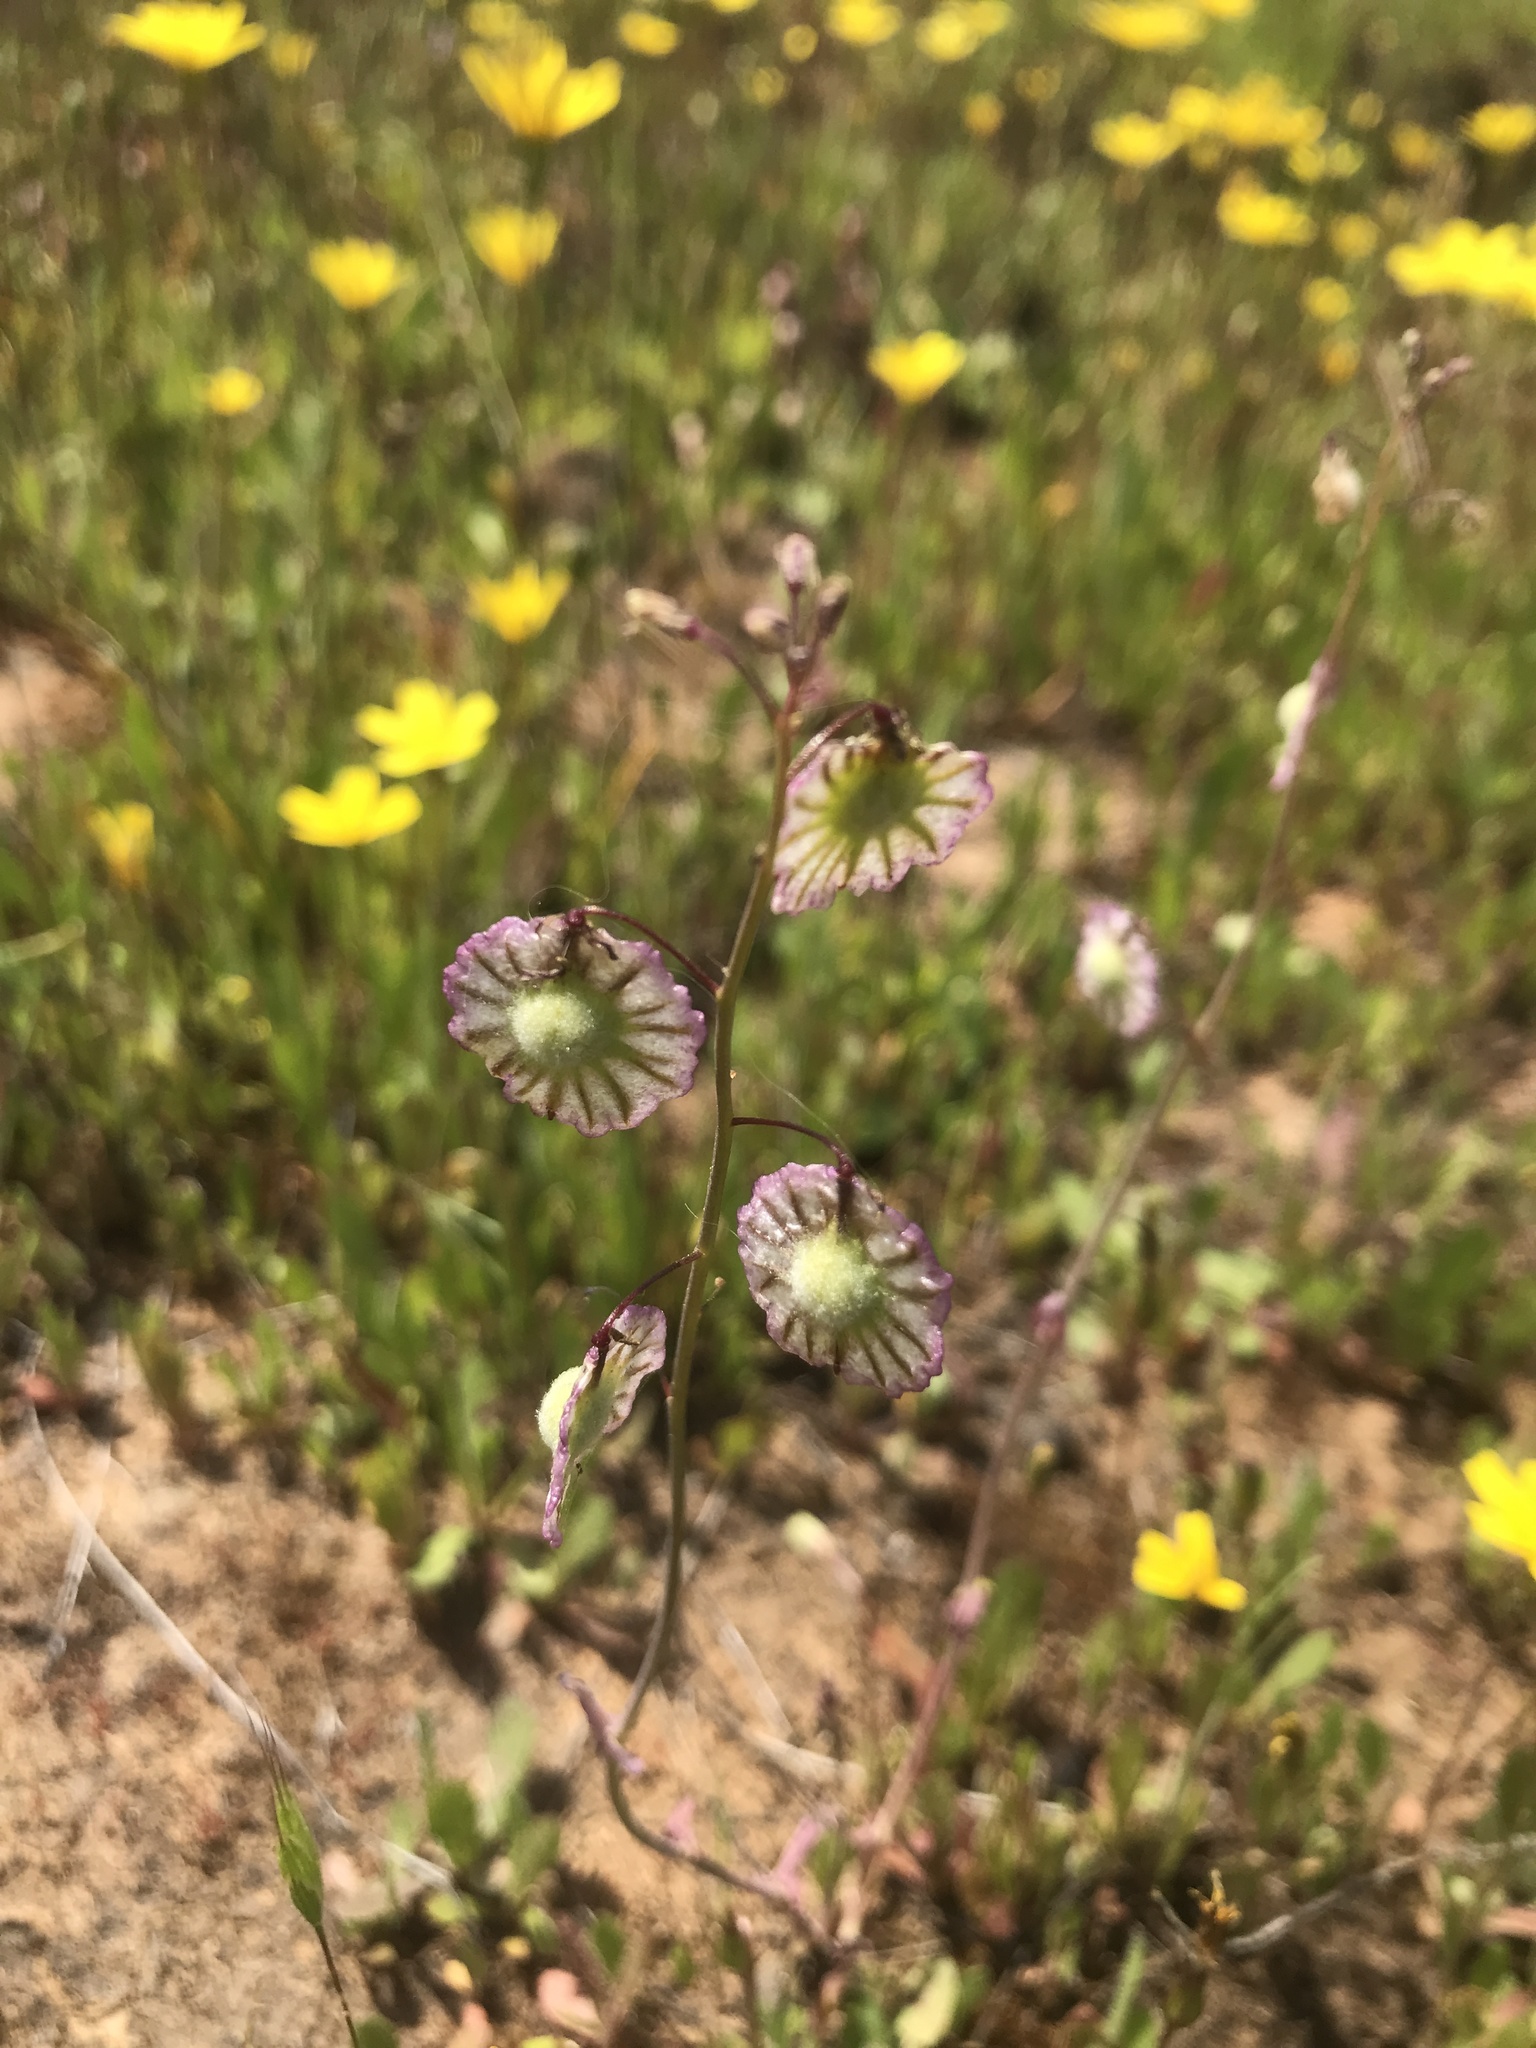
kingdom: Plantae
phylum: Tracheophyta
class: Magnoliopsida
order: Brassicales
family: Brassicaceae
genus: Thysanocarpus
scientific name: Thysanocarpus radians
